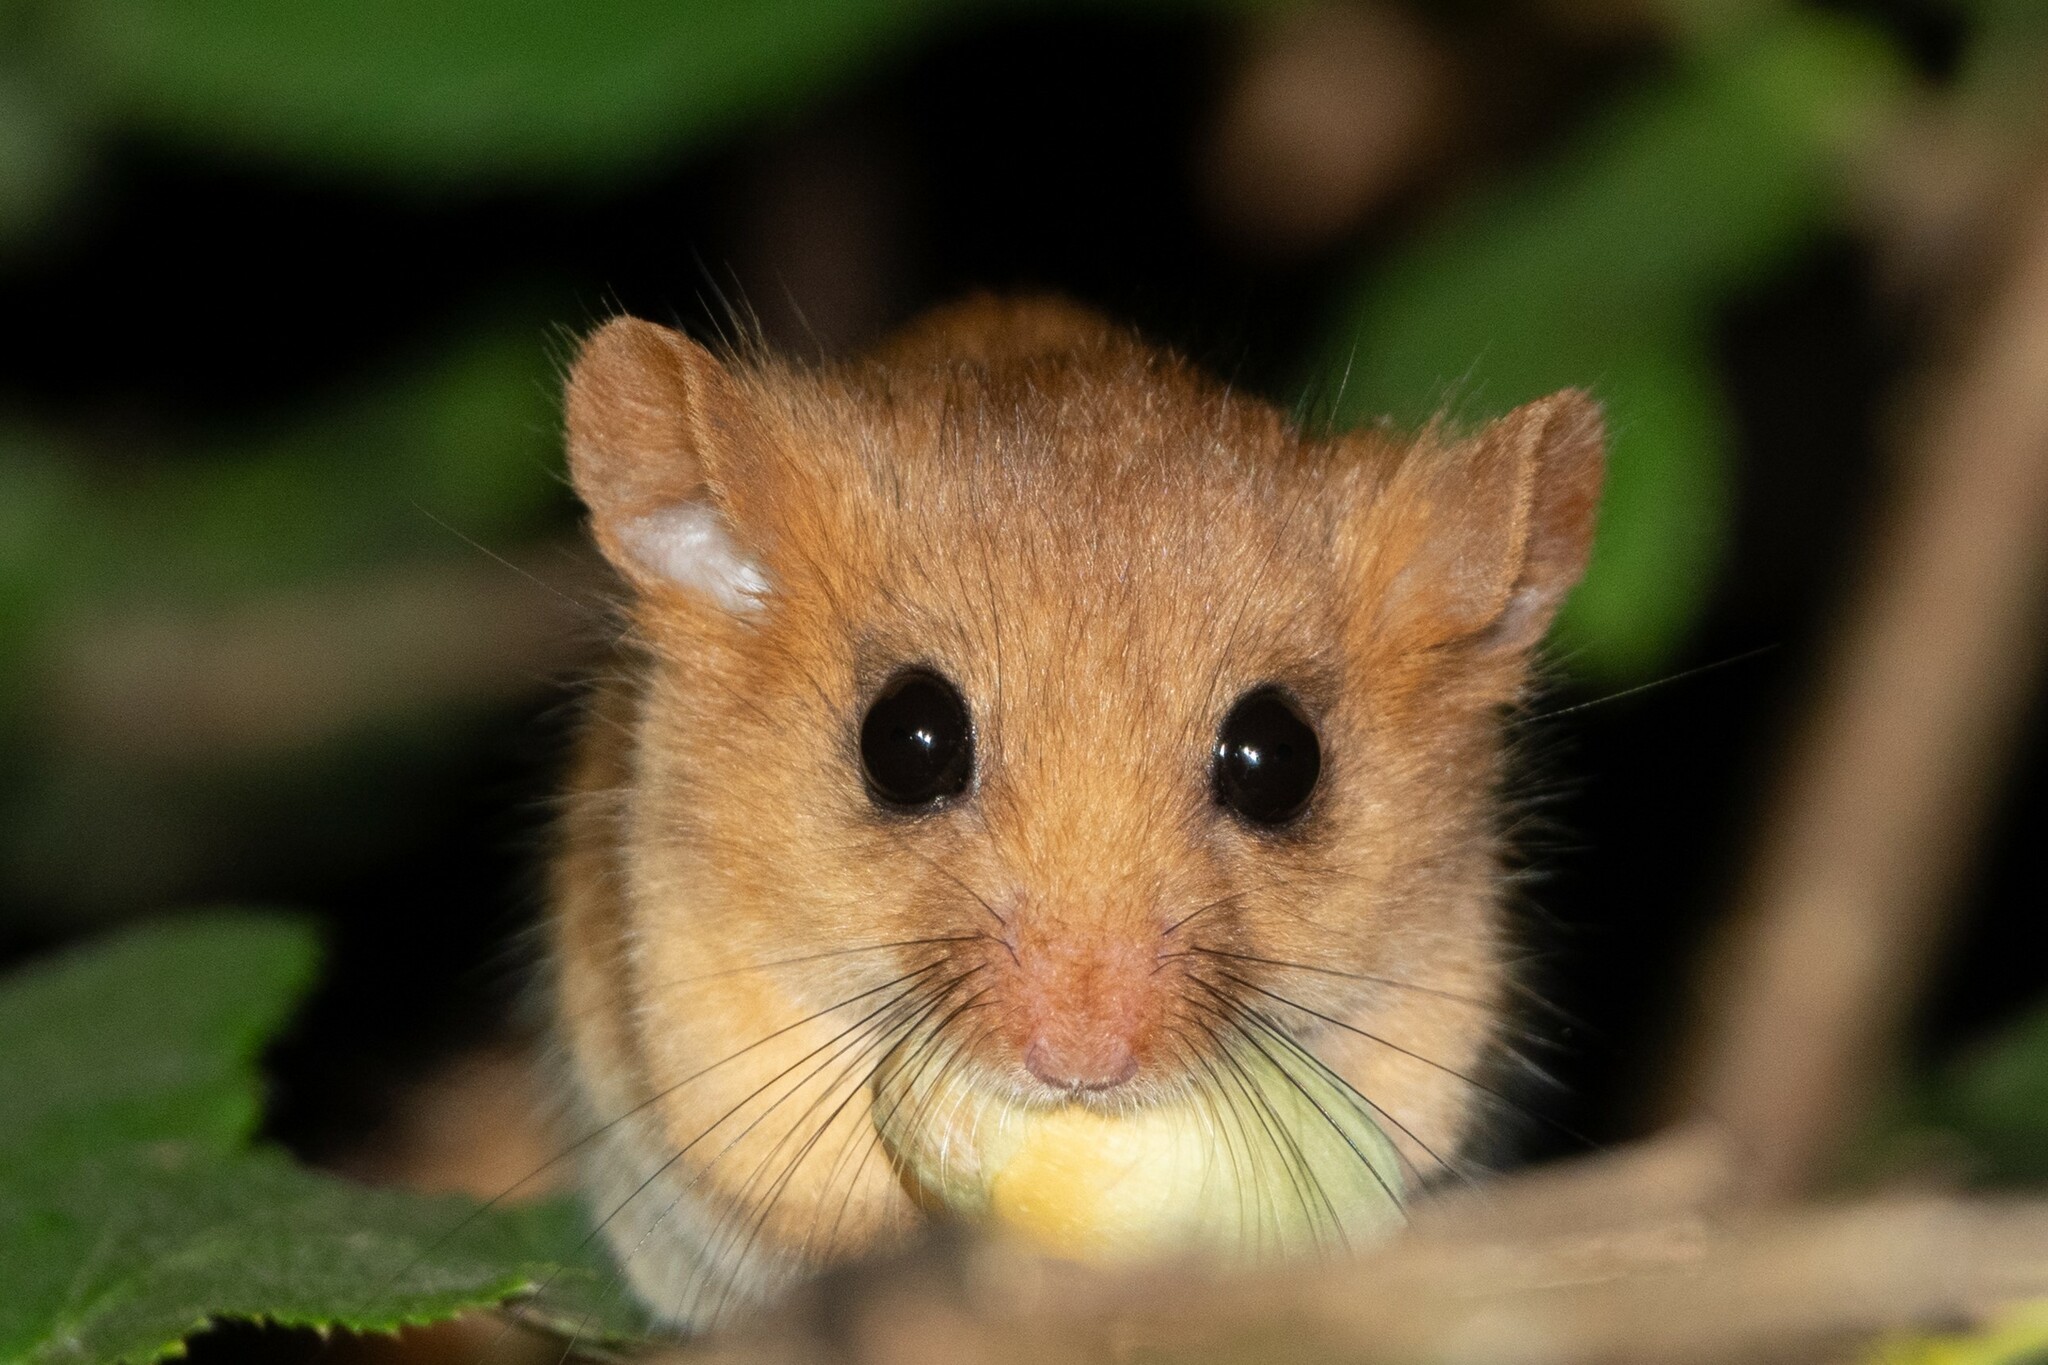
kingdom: Animalia
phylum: Chordata
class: Mammalia
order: Rodentia
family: Gliridae
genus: Muscardinus
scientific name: Muscardinus avellanarius
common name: Hazel dormouse
